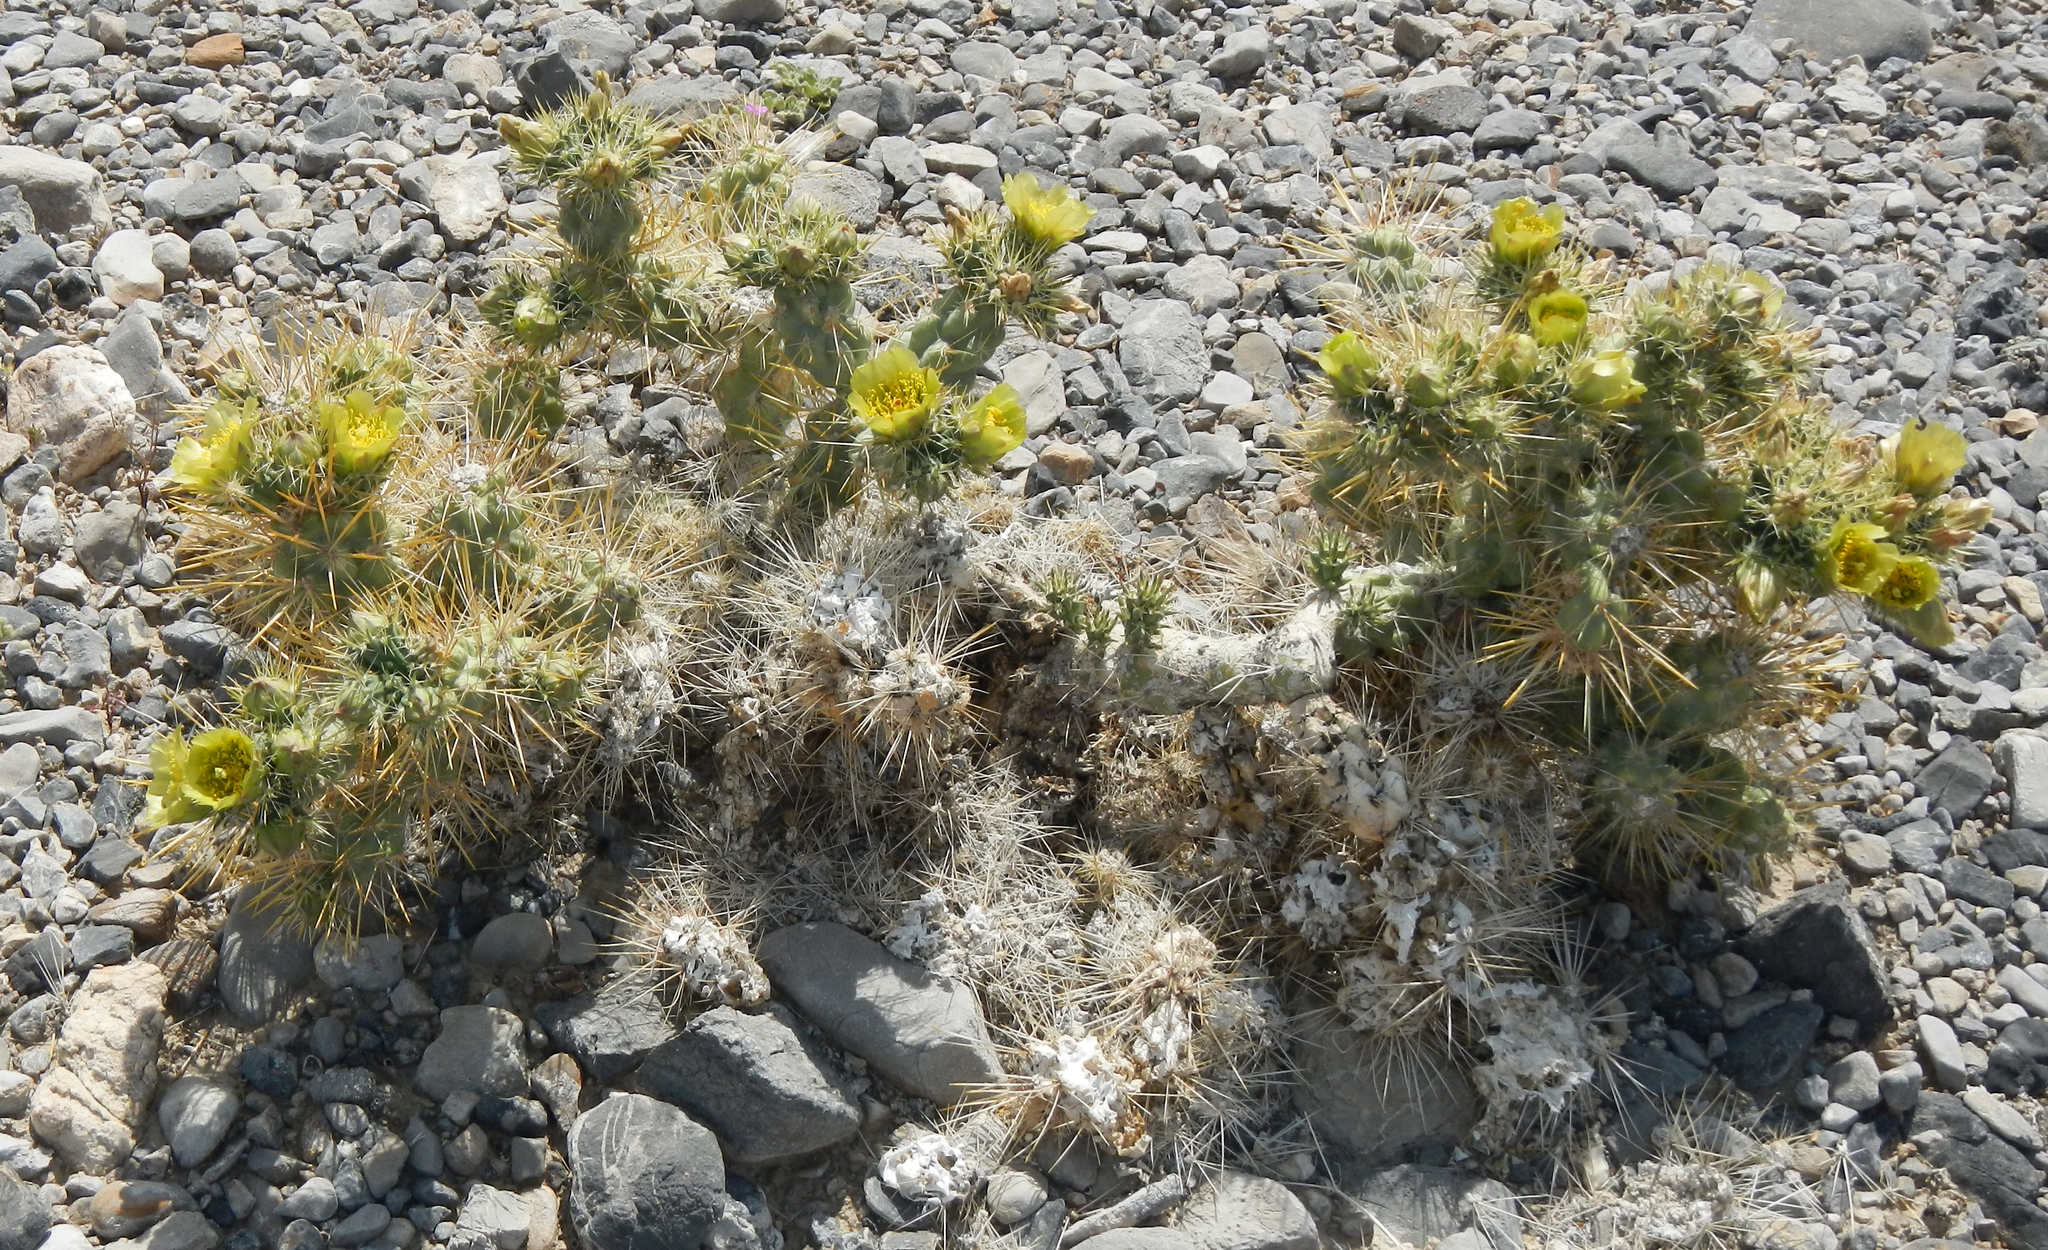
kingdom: Plantae
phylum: Tracheophyta
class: Magnoliopsida
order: Caryophyllales
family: Cactaceae
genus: Cylindropuntia
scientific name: Cylindropuntia echinocarpa
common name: Ground cholla
